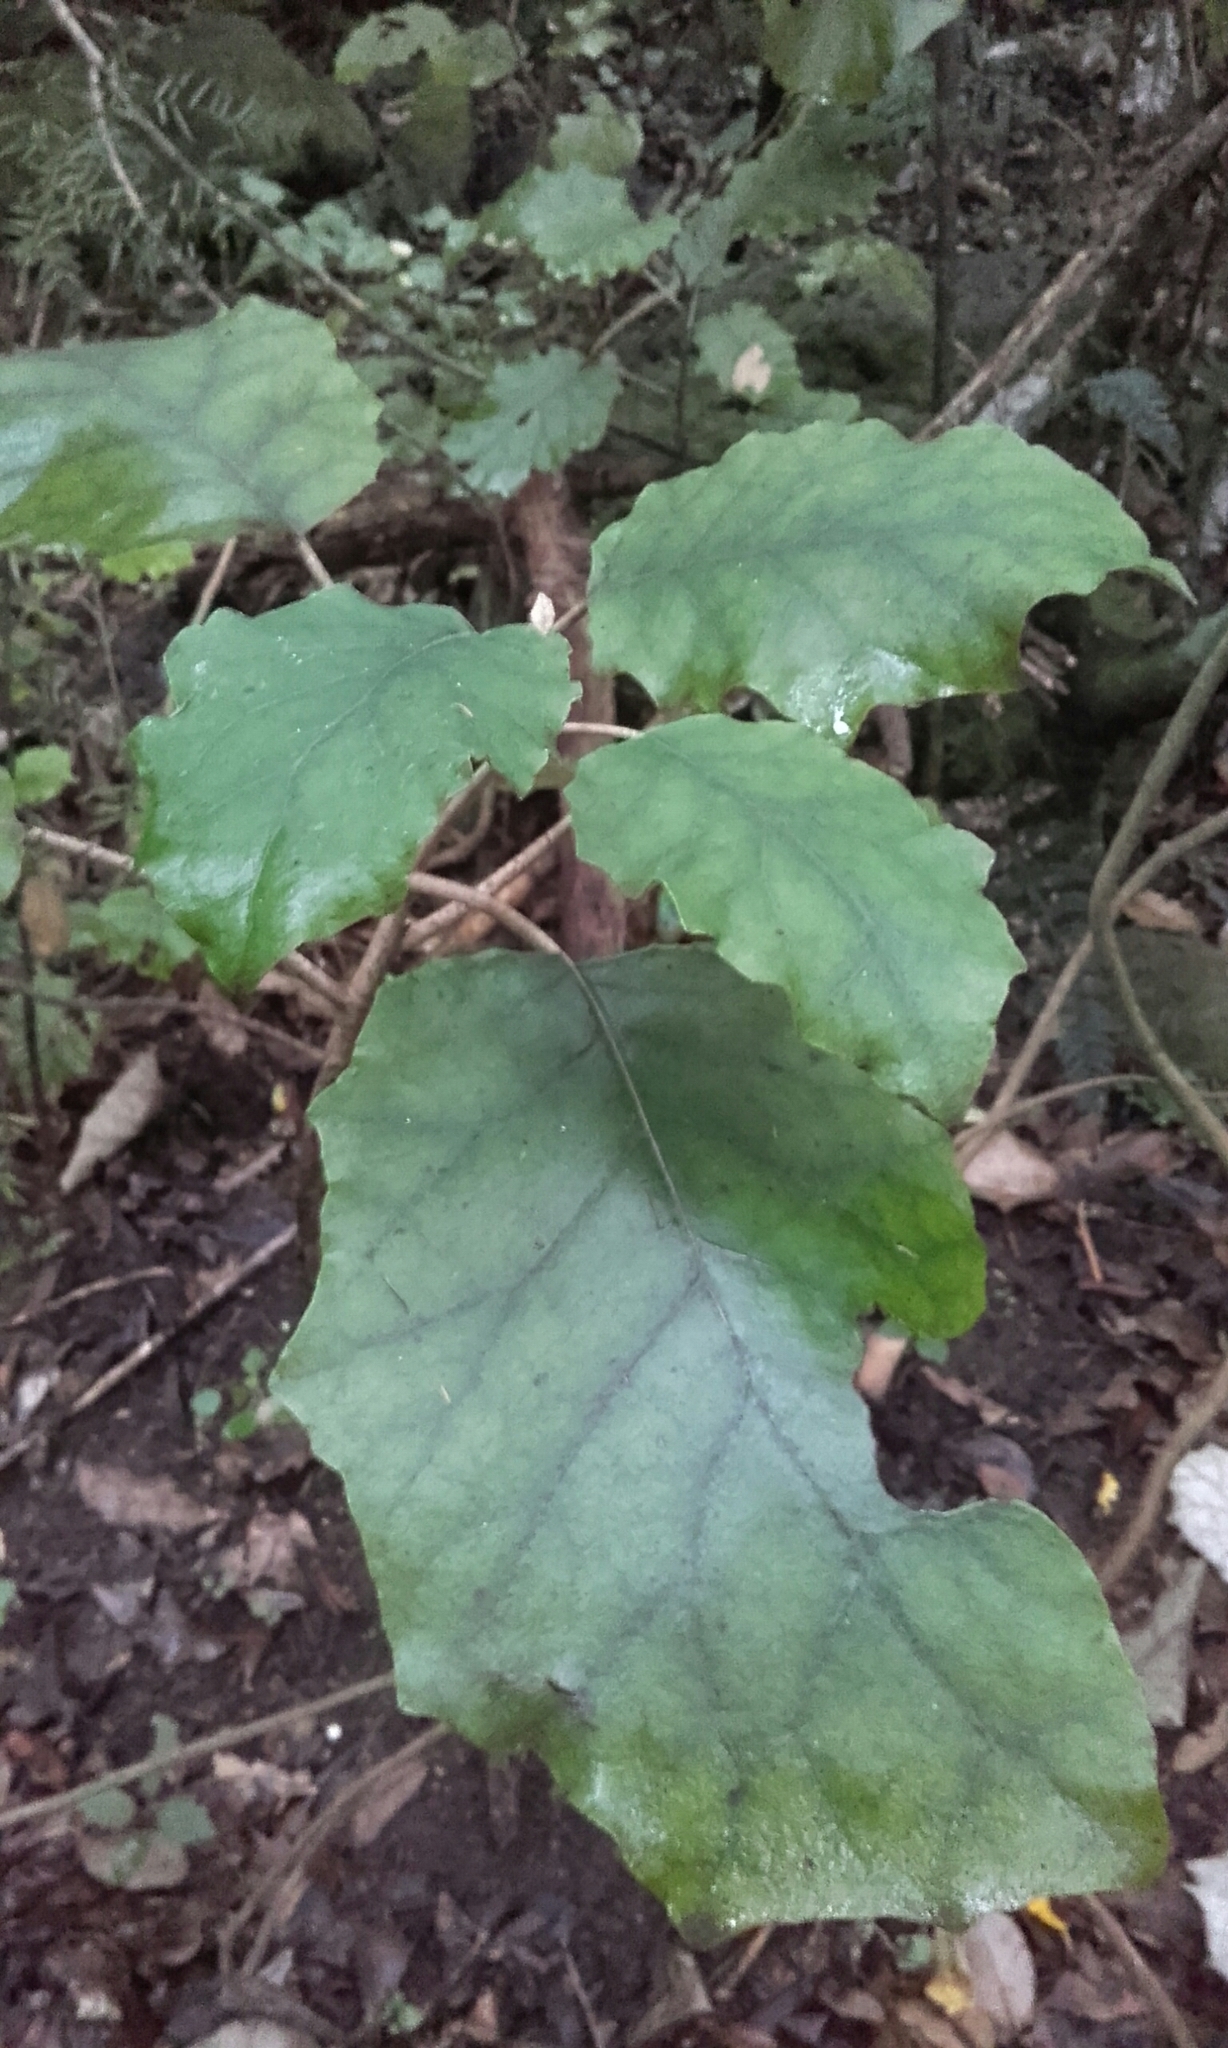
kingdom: Plantae
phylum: Tracheophyta
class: Magnoliopsida
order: Asterales
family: Asteraceae
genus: Brachyglottis
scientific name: Brachyglottis repanda
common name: Hedge ragwort
